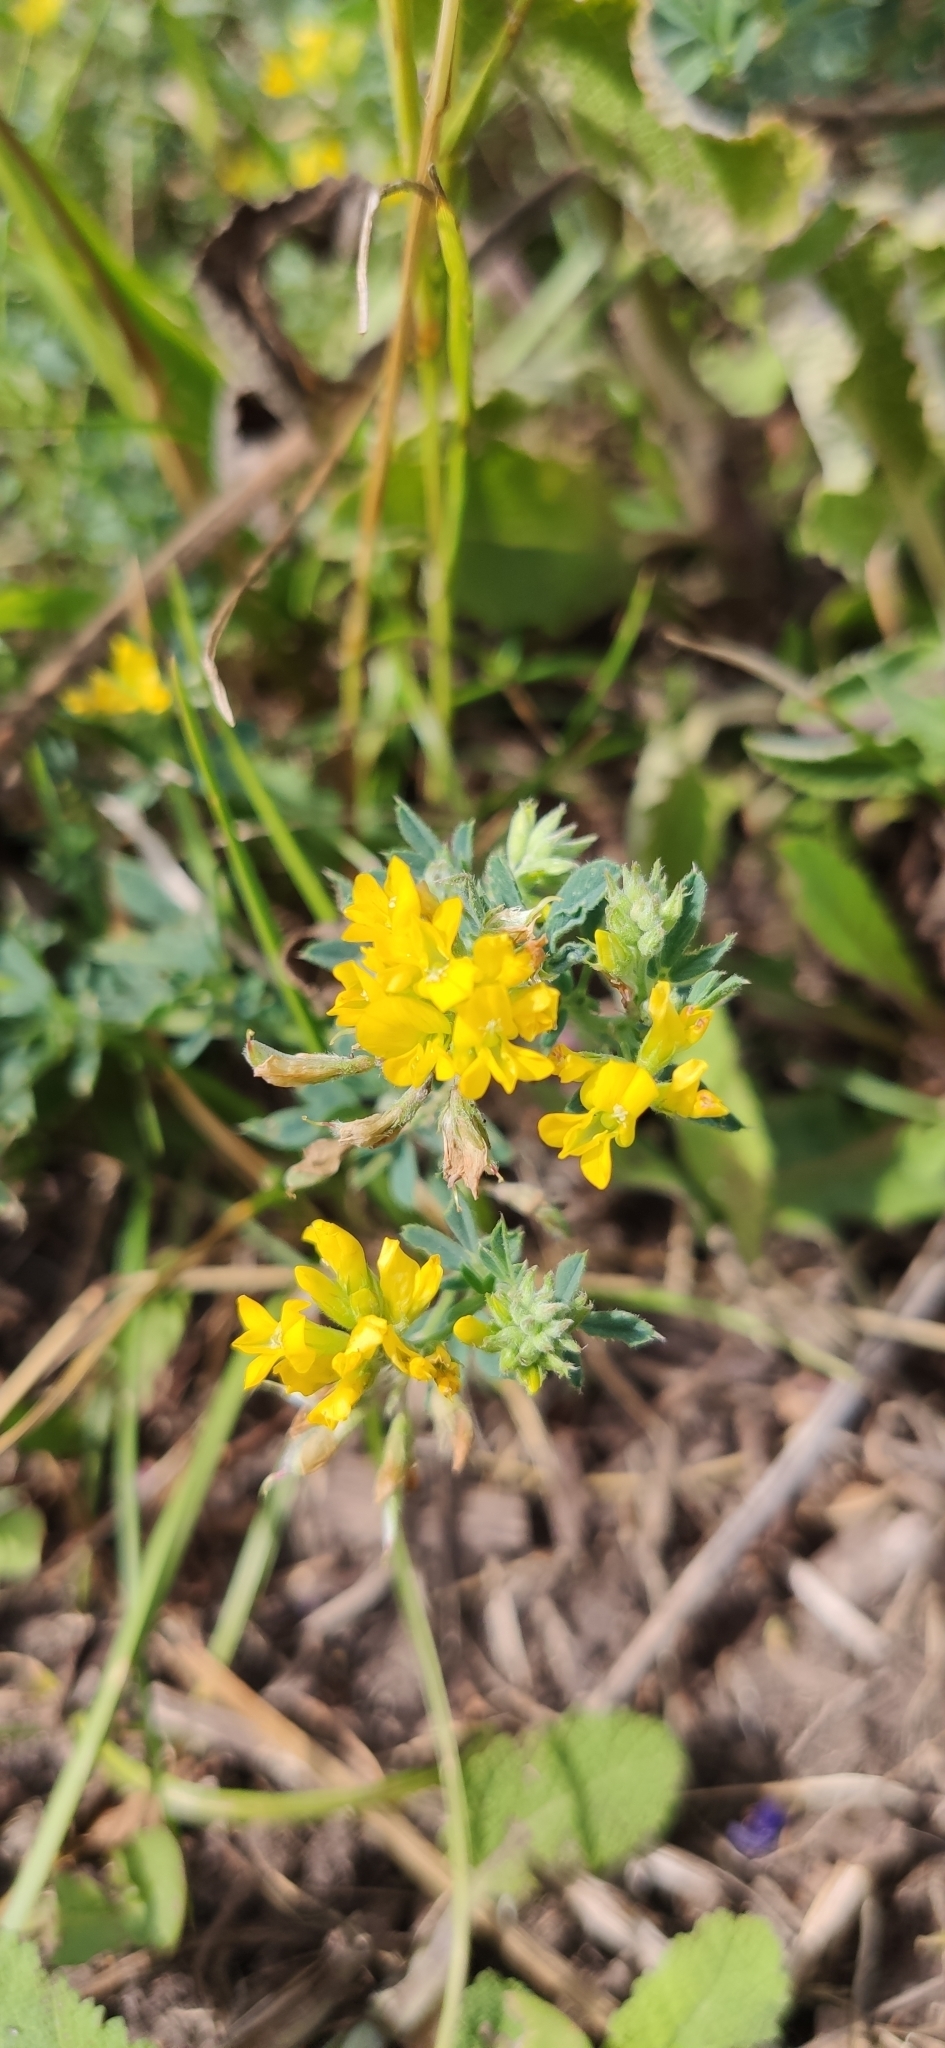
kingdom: Plantae
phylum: Tracheophyta
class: Magnoliopsida
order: Fabales
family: Fabaceae
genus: Medicago
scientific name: Medicago falcata
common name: Sickle medick
